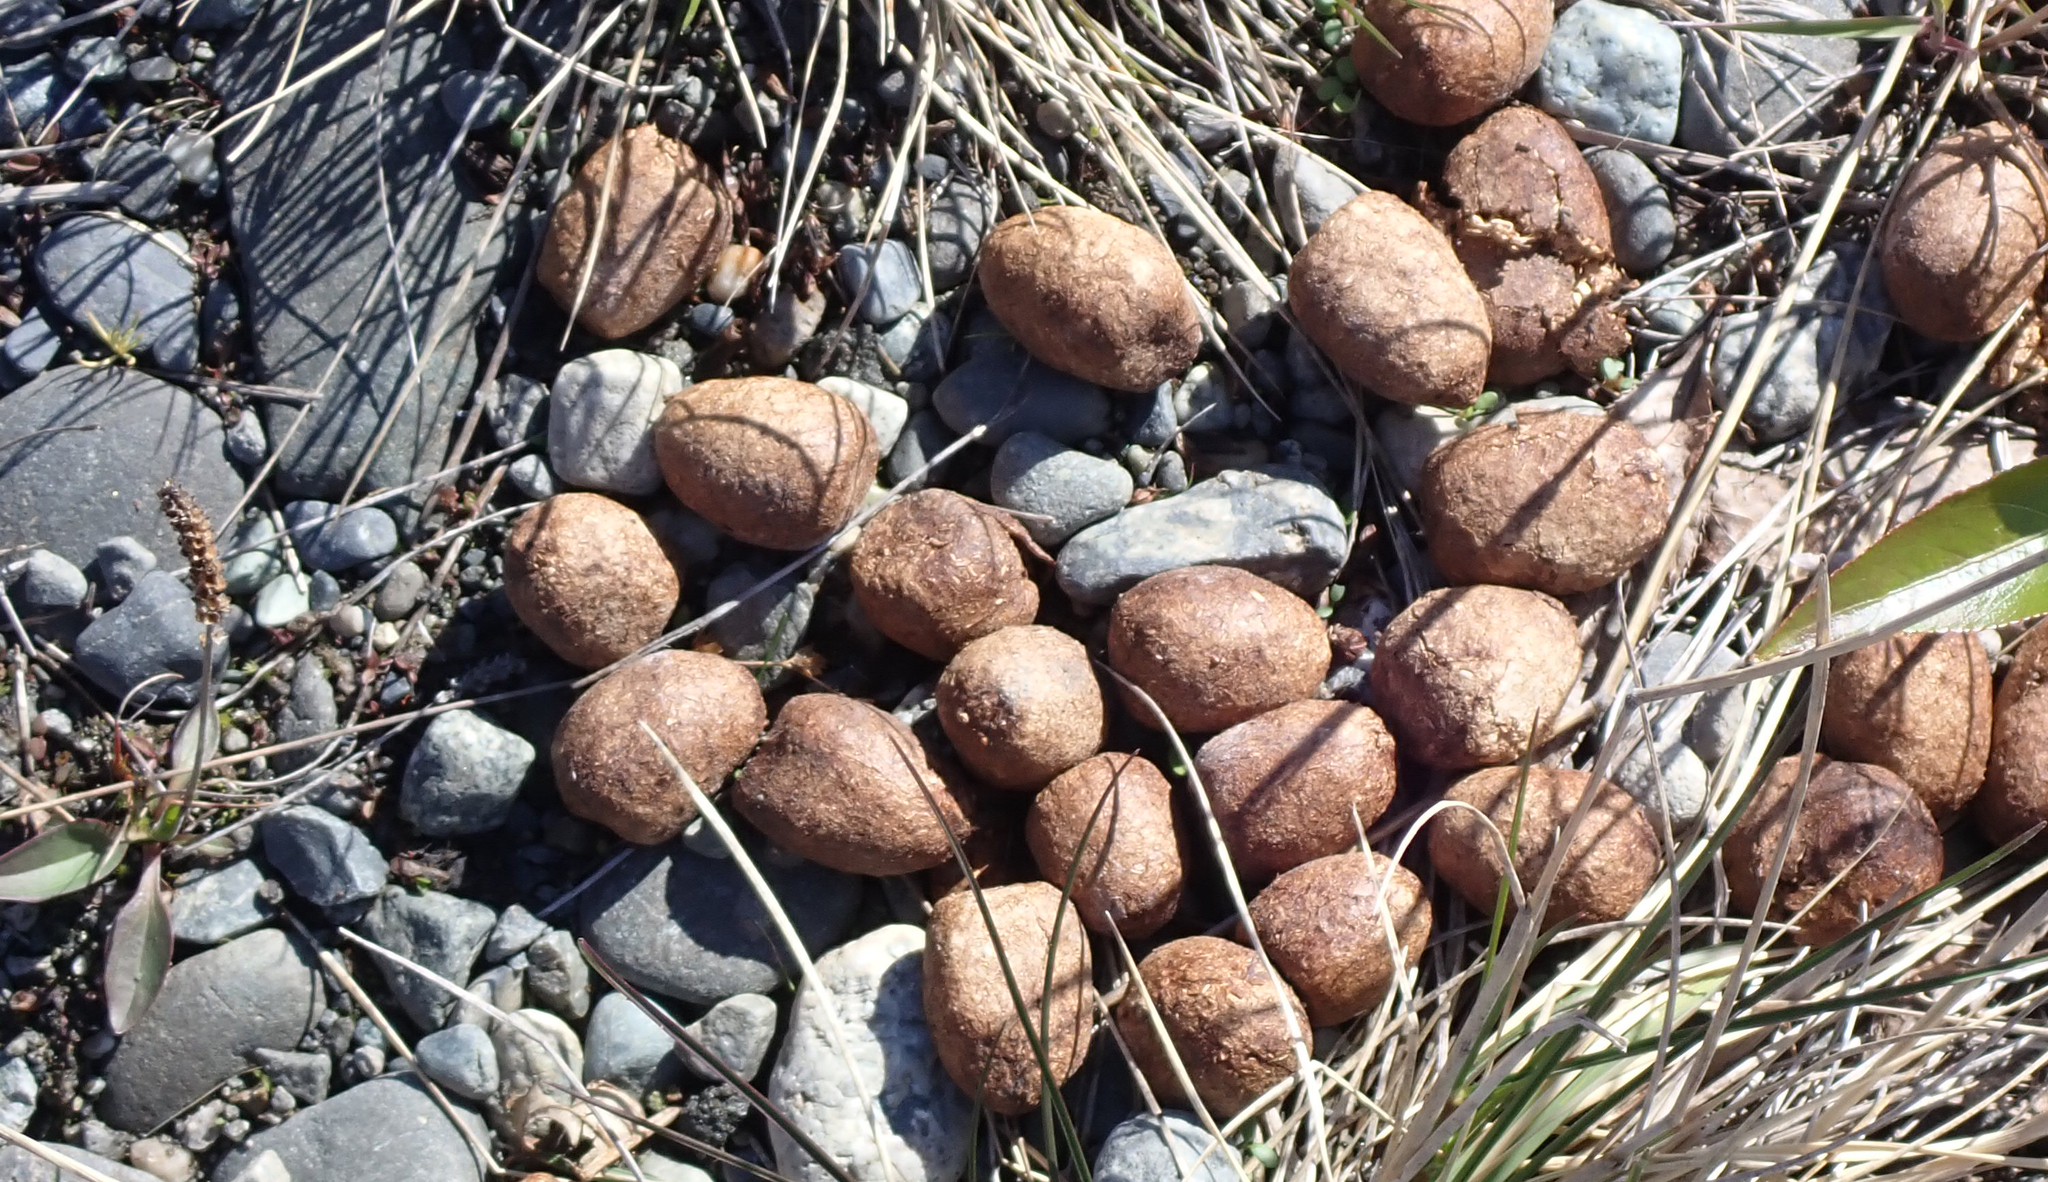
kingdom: Animalia
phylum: Chordata
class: Mammalia
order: Artiodactyla
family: Cervidae
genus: Alces
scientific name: Alces alces
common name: Moose
